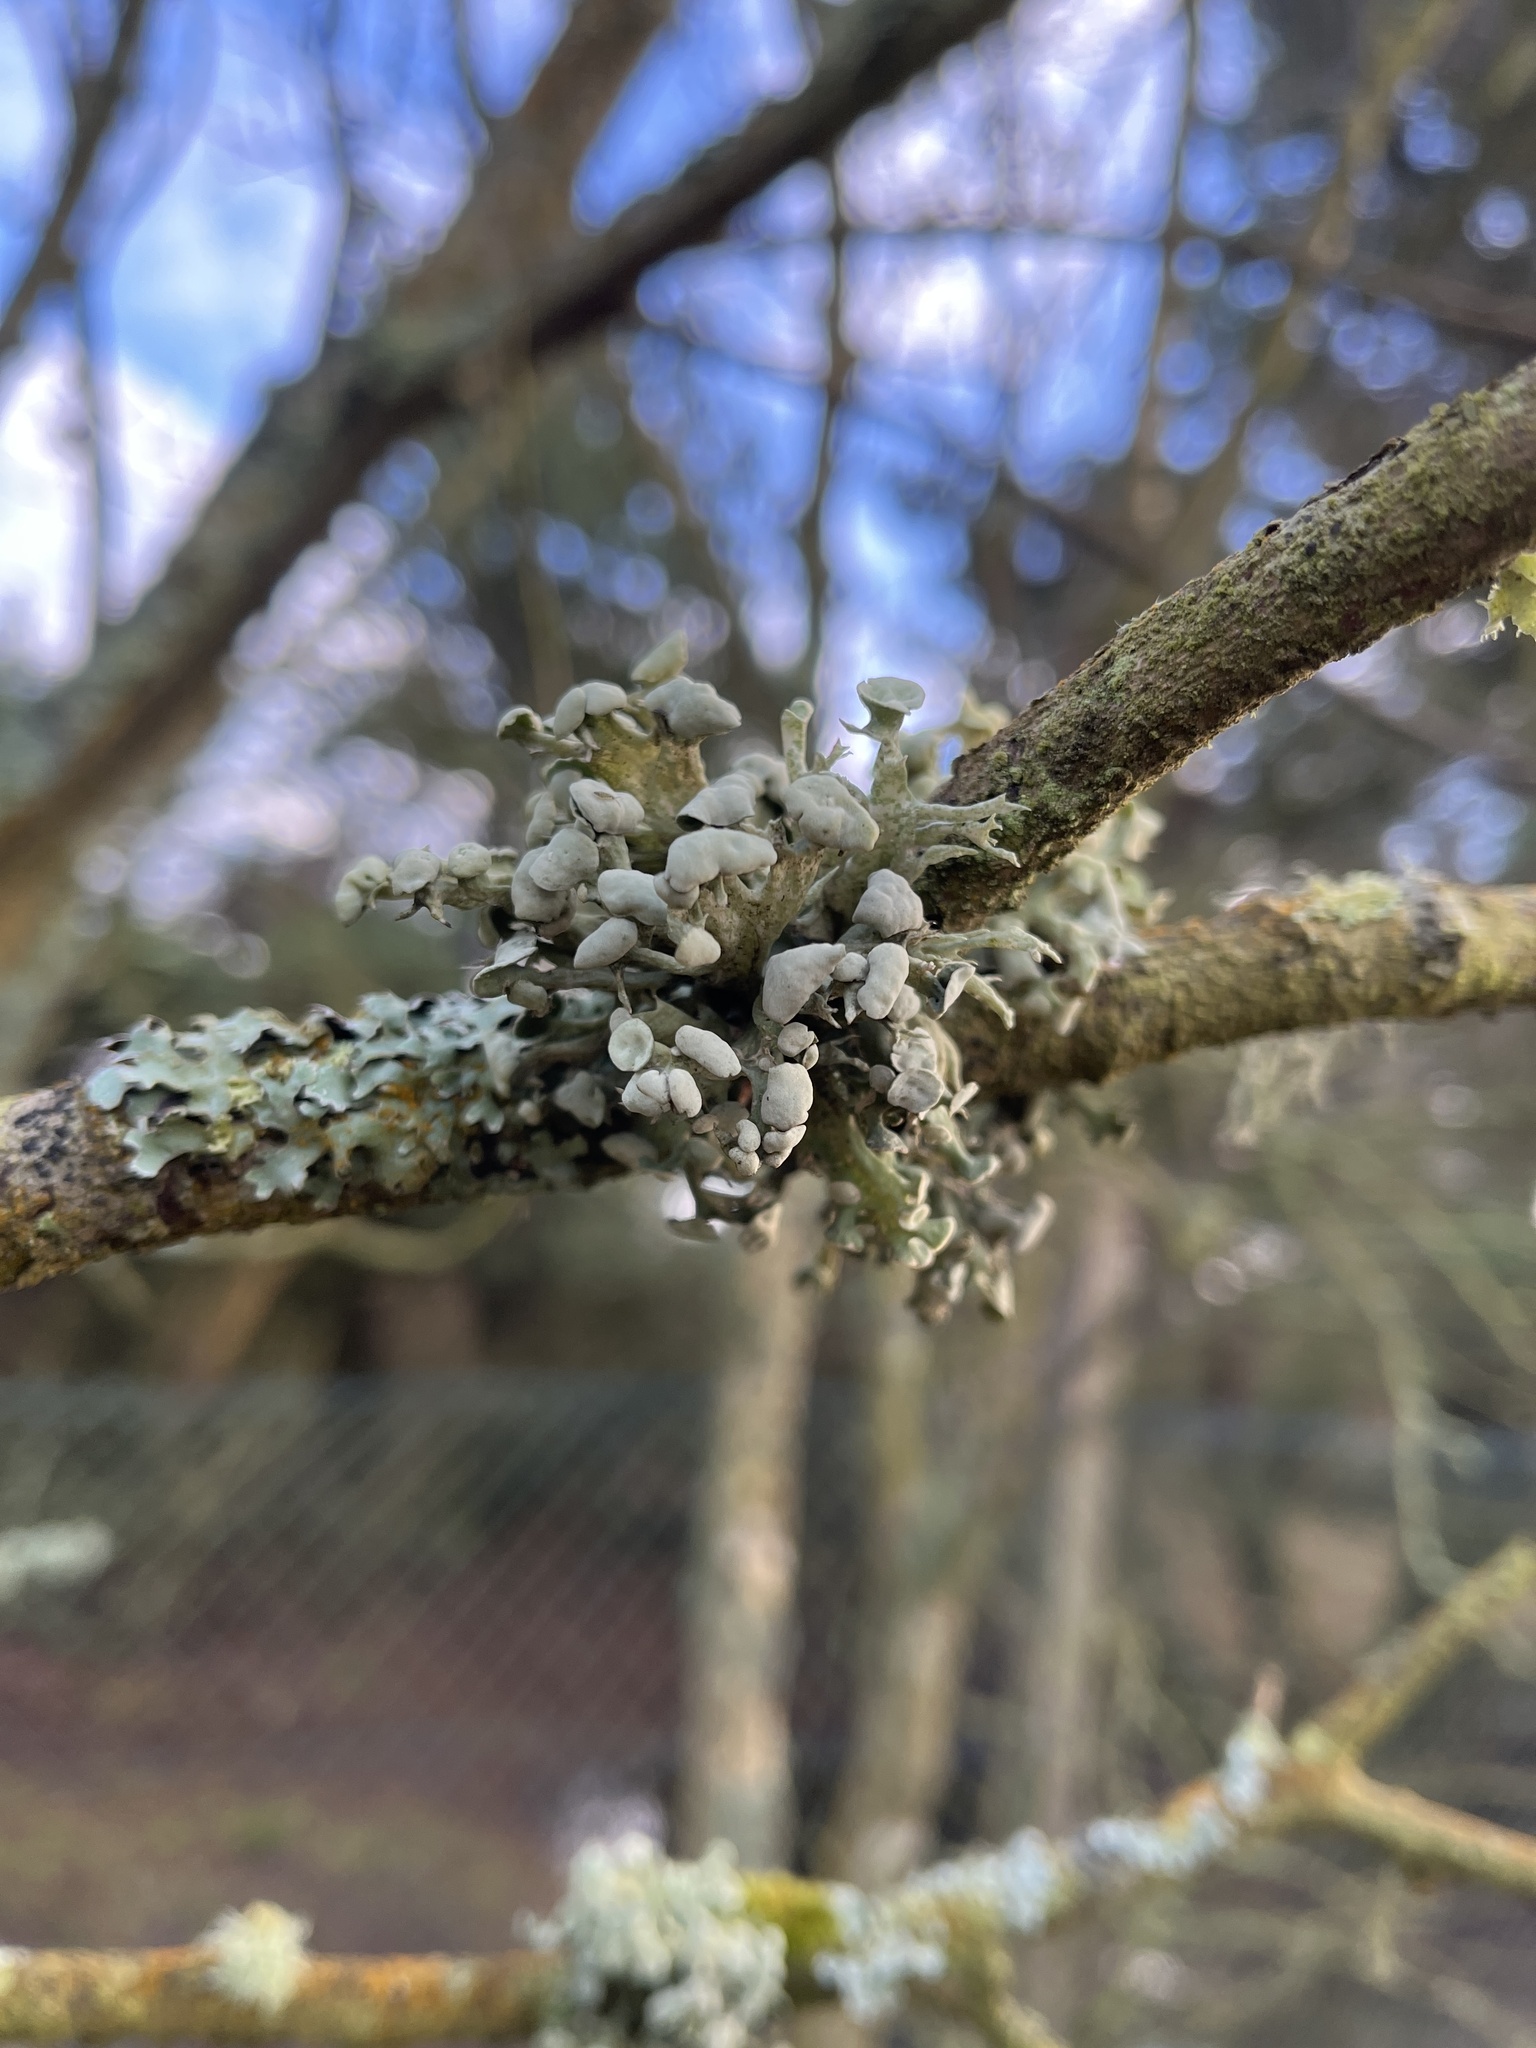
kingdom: Fungi
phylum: Ascomycota
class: Lecanoromycetes
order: Lecanorales
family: Ramalinaceae
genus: Ramalina
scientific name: Ramalina fastigiata
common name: Dotted ribbon lichen
